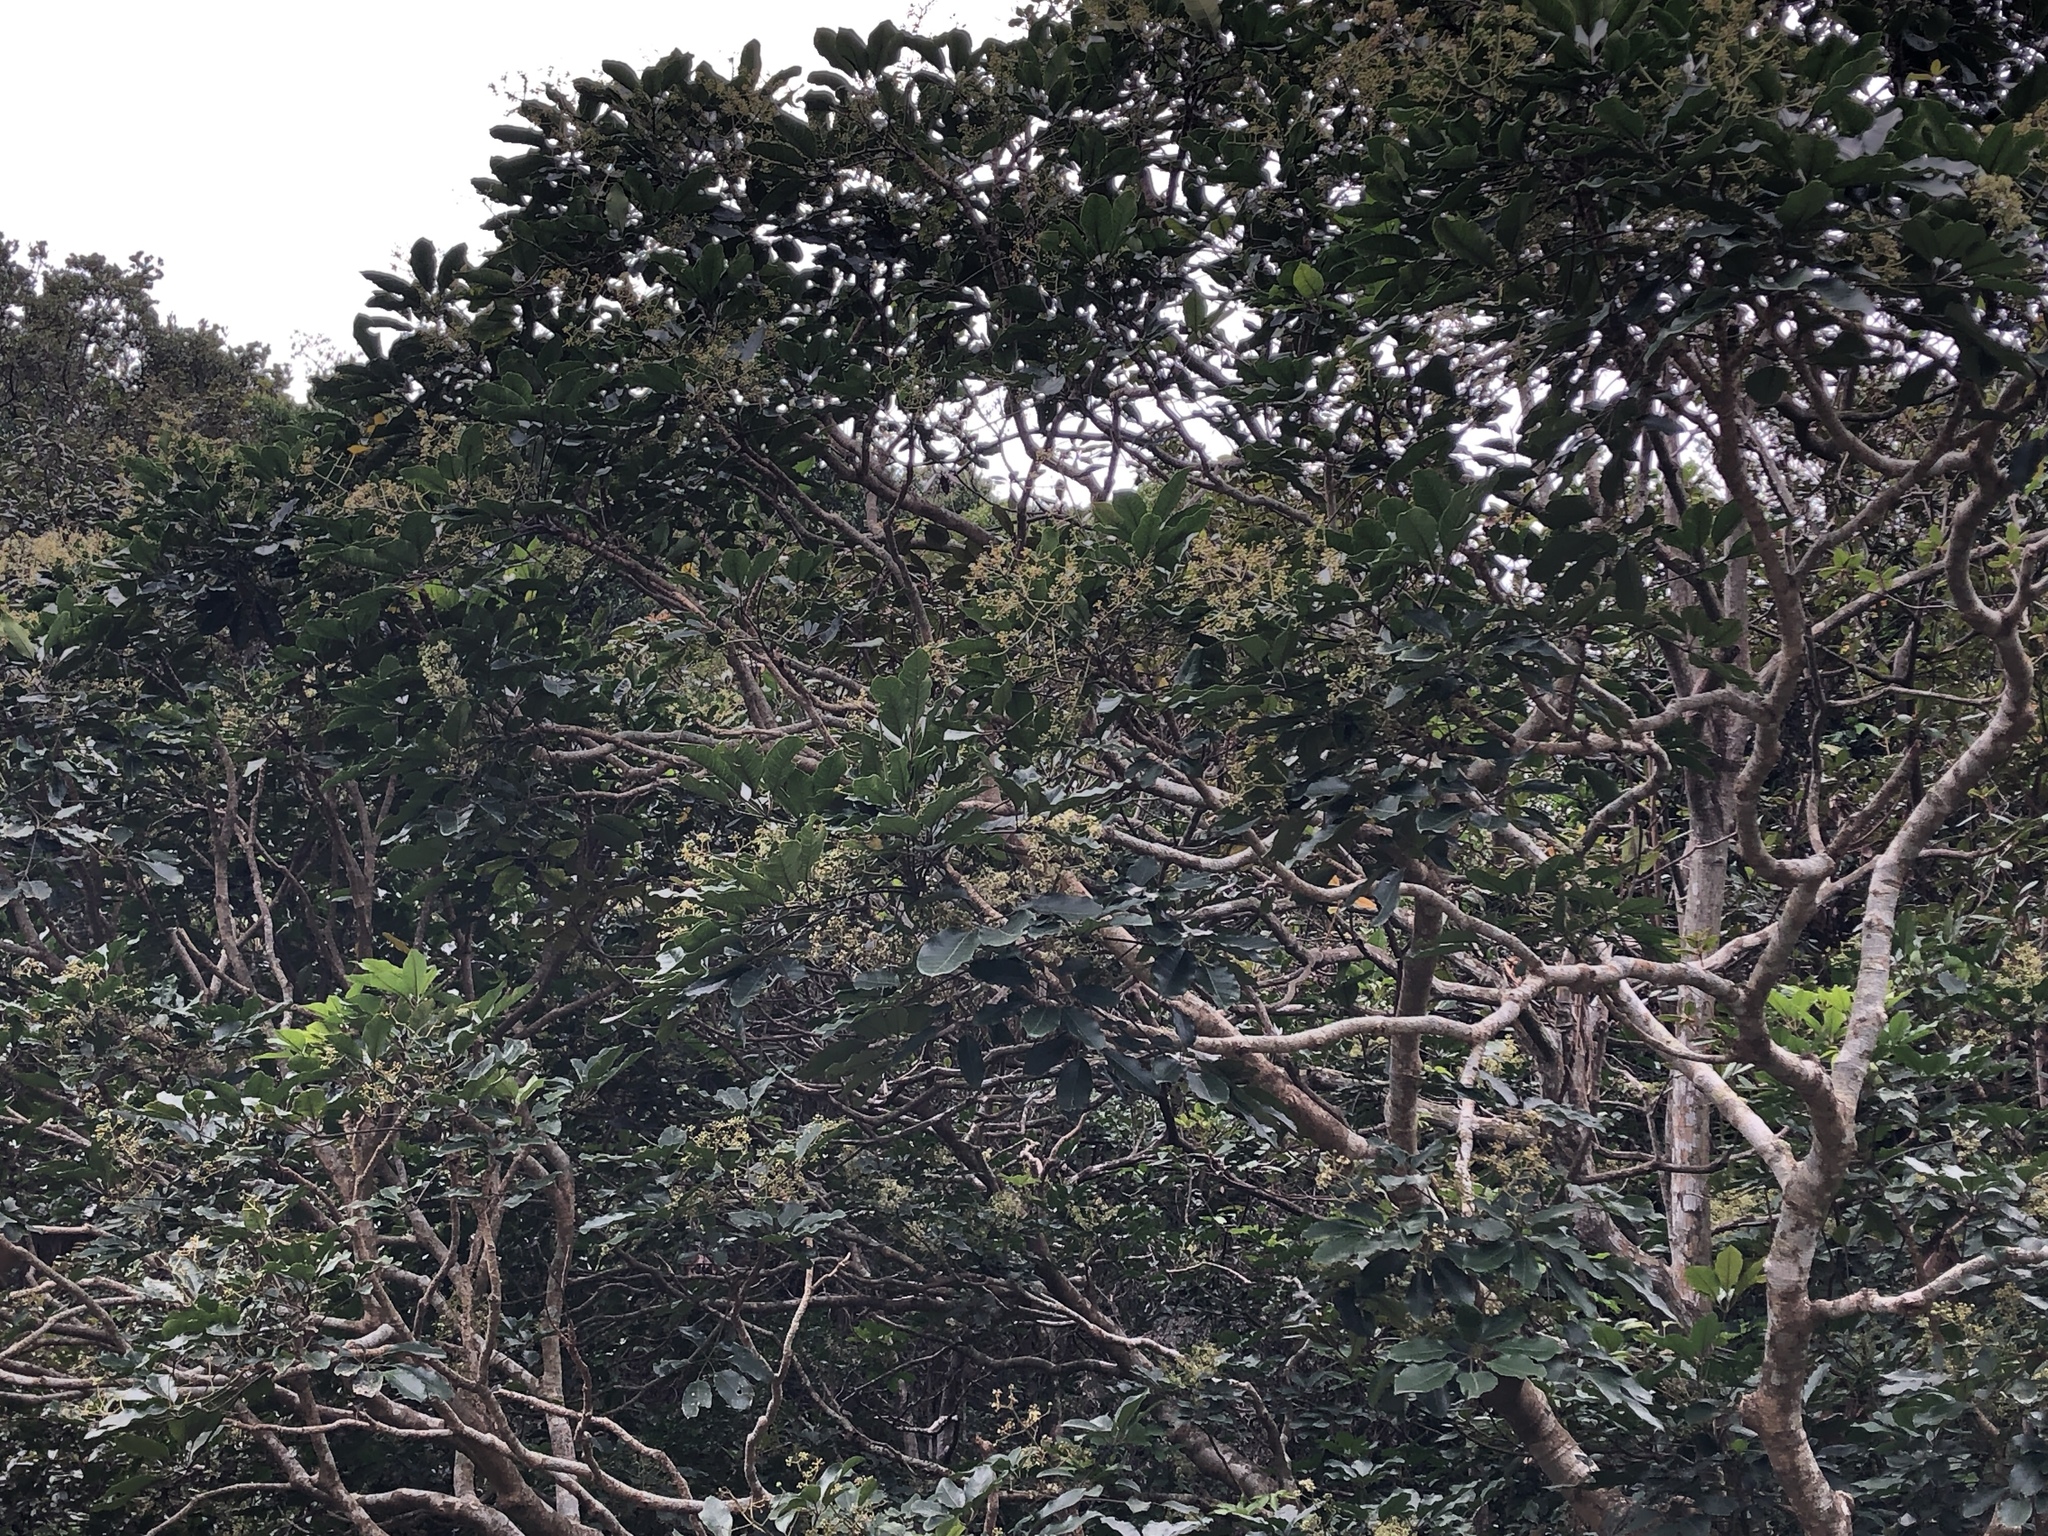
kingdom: Plantae
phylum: Tracheophyta
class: Magnoliopsida
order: Apiales
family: Araliaceae
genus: Heptapleurum
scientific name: Heptapleurum heptaphyllum
